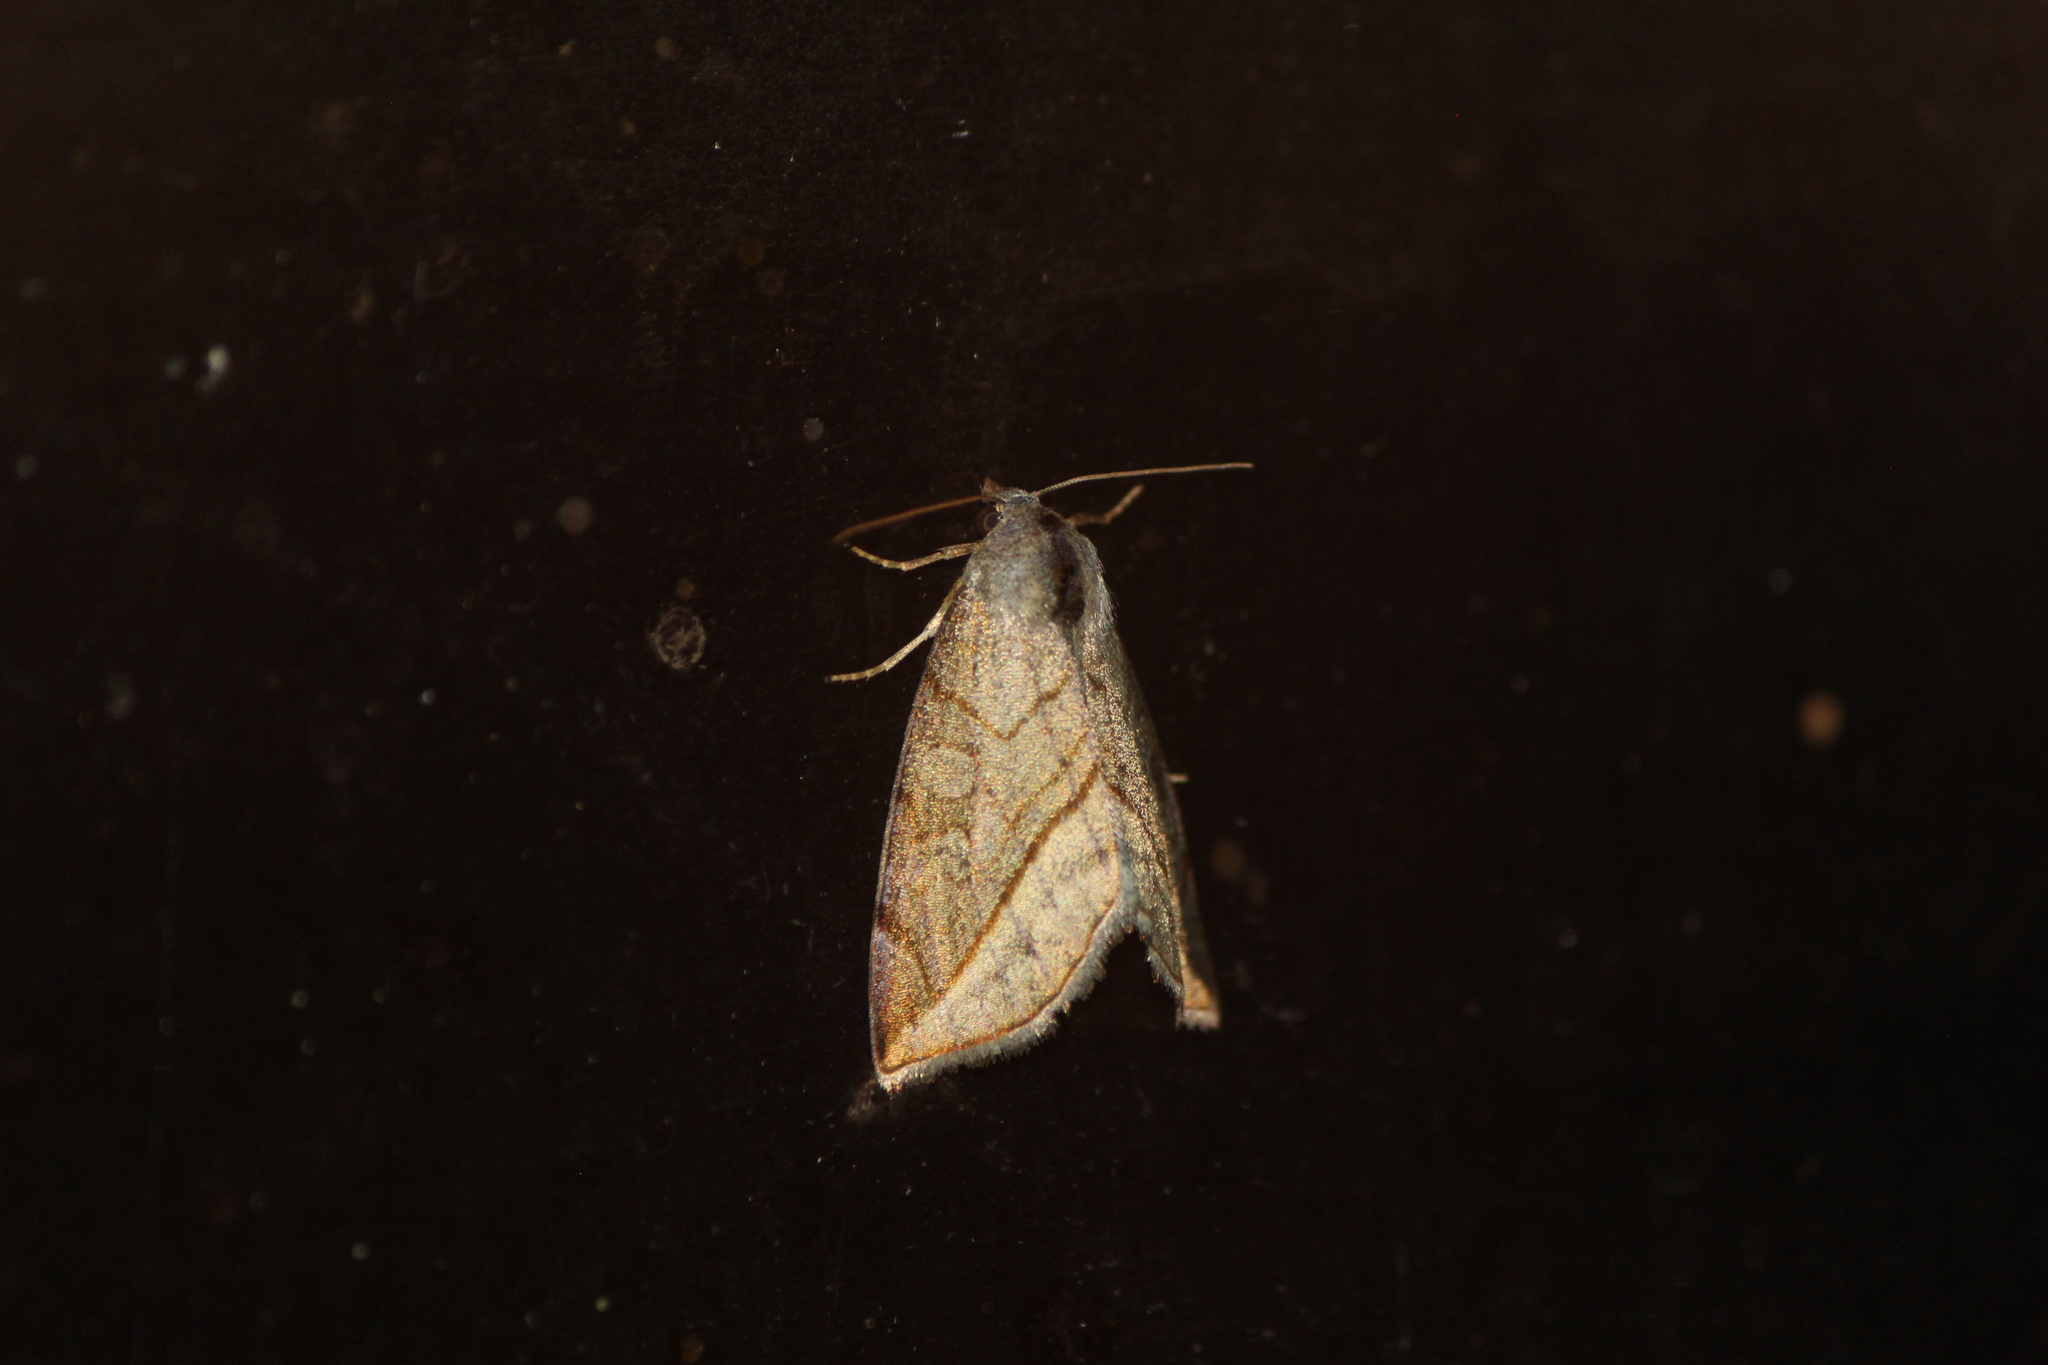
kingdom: Animalia
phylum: Arthropoda
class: Insecta
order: Lepidoptera
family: Noctuidae
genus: Plagiomimicus
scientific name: Plagiomimicus ochoa
